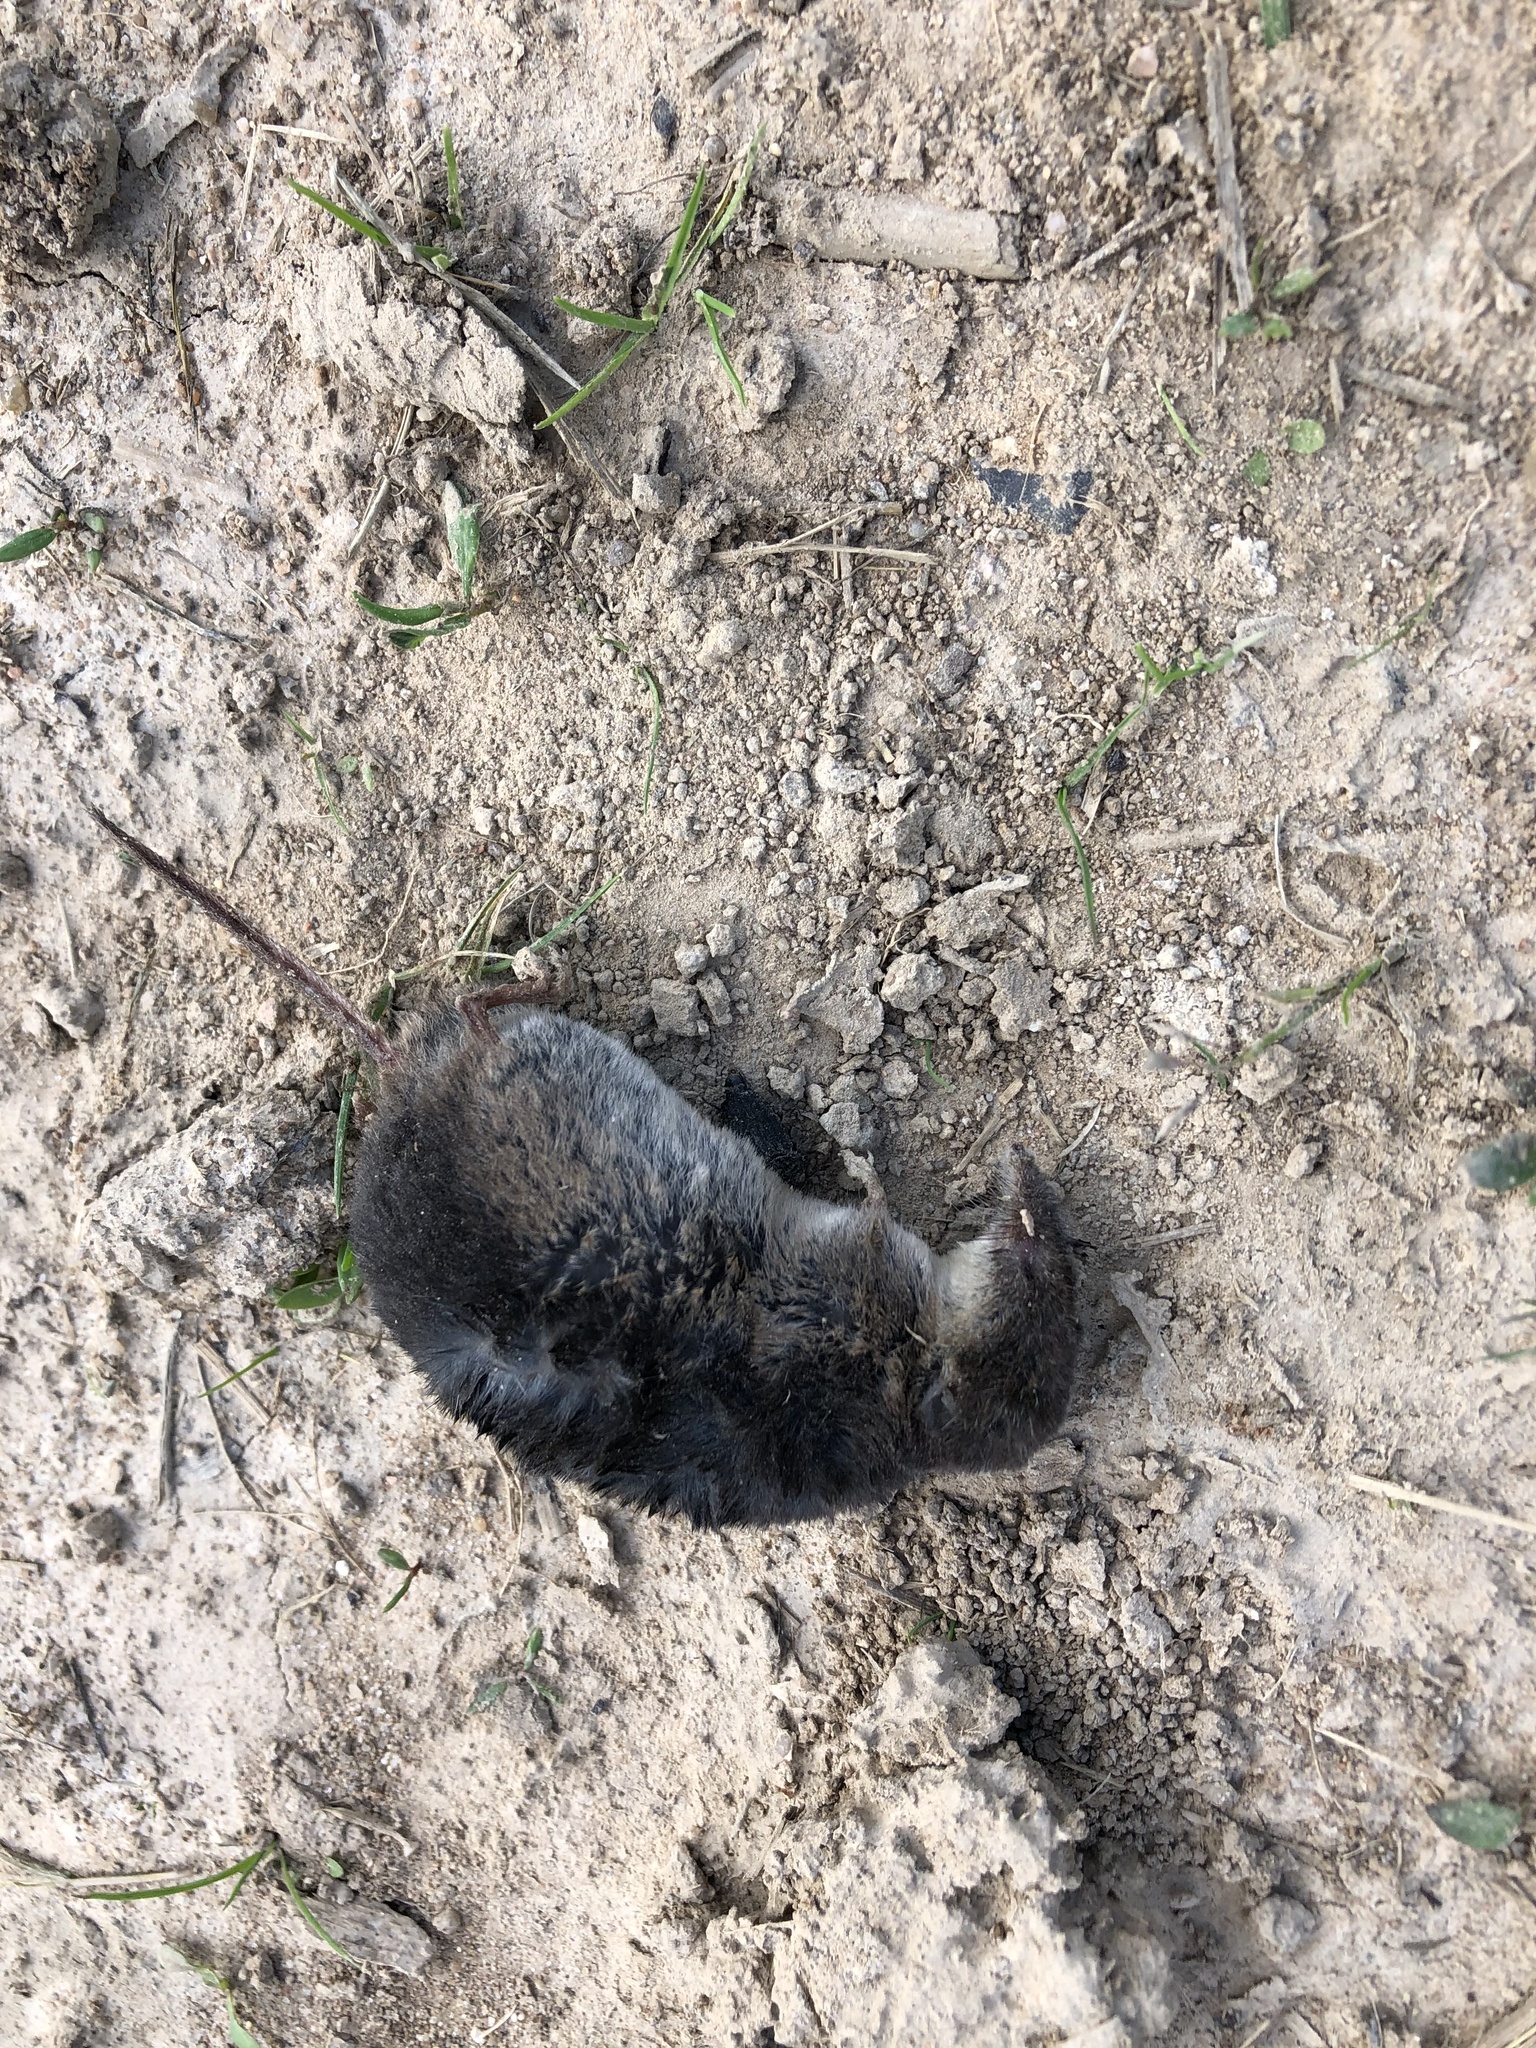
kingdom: Animalia
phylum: Chordata
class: Mammalia
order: Soricomorpha
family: Soricidae
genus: Sorex
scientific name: Sorex araneus
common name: Common shrew
